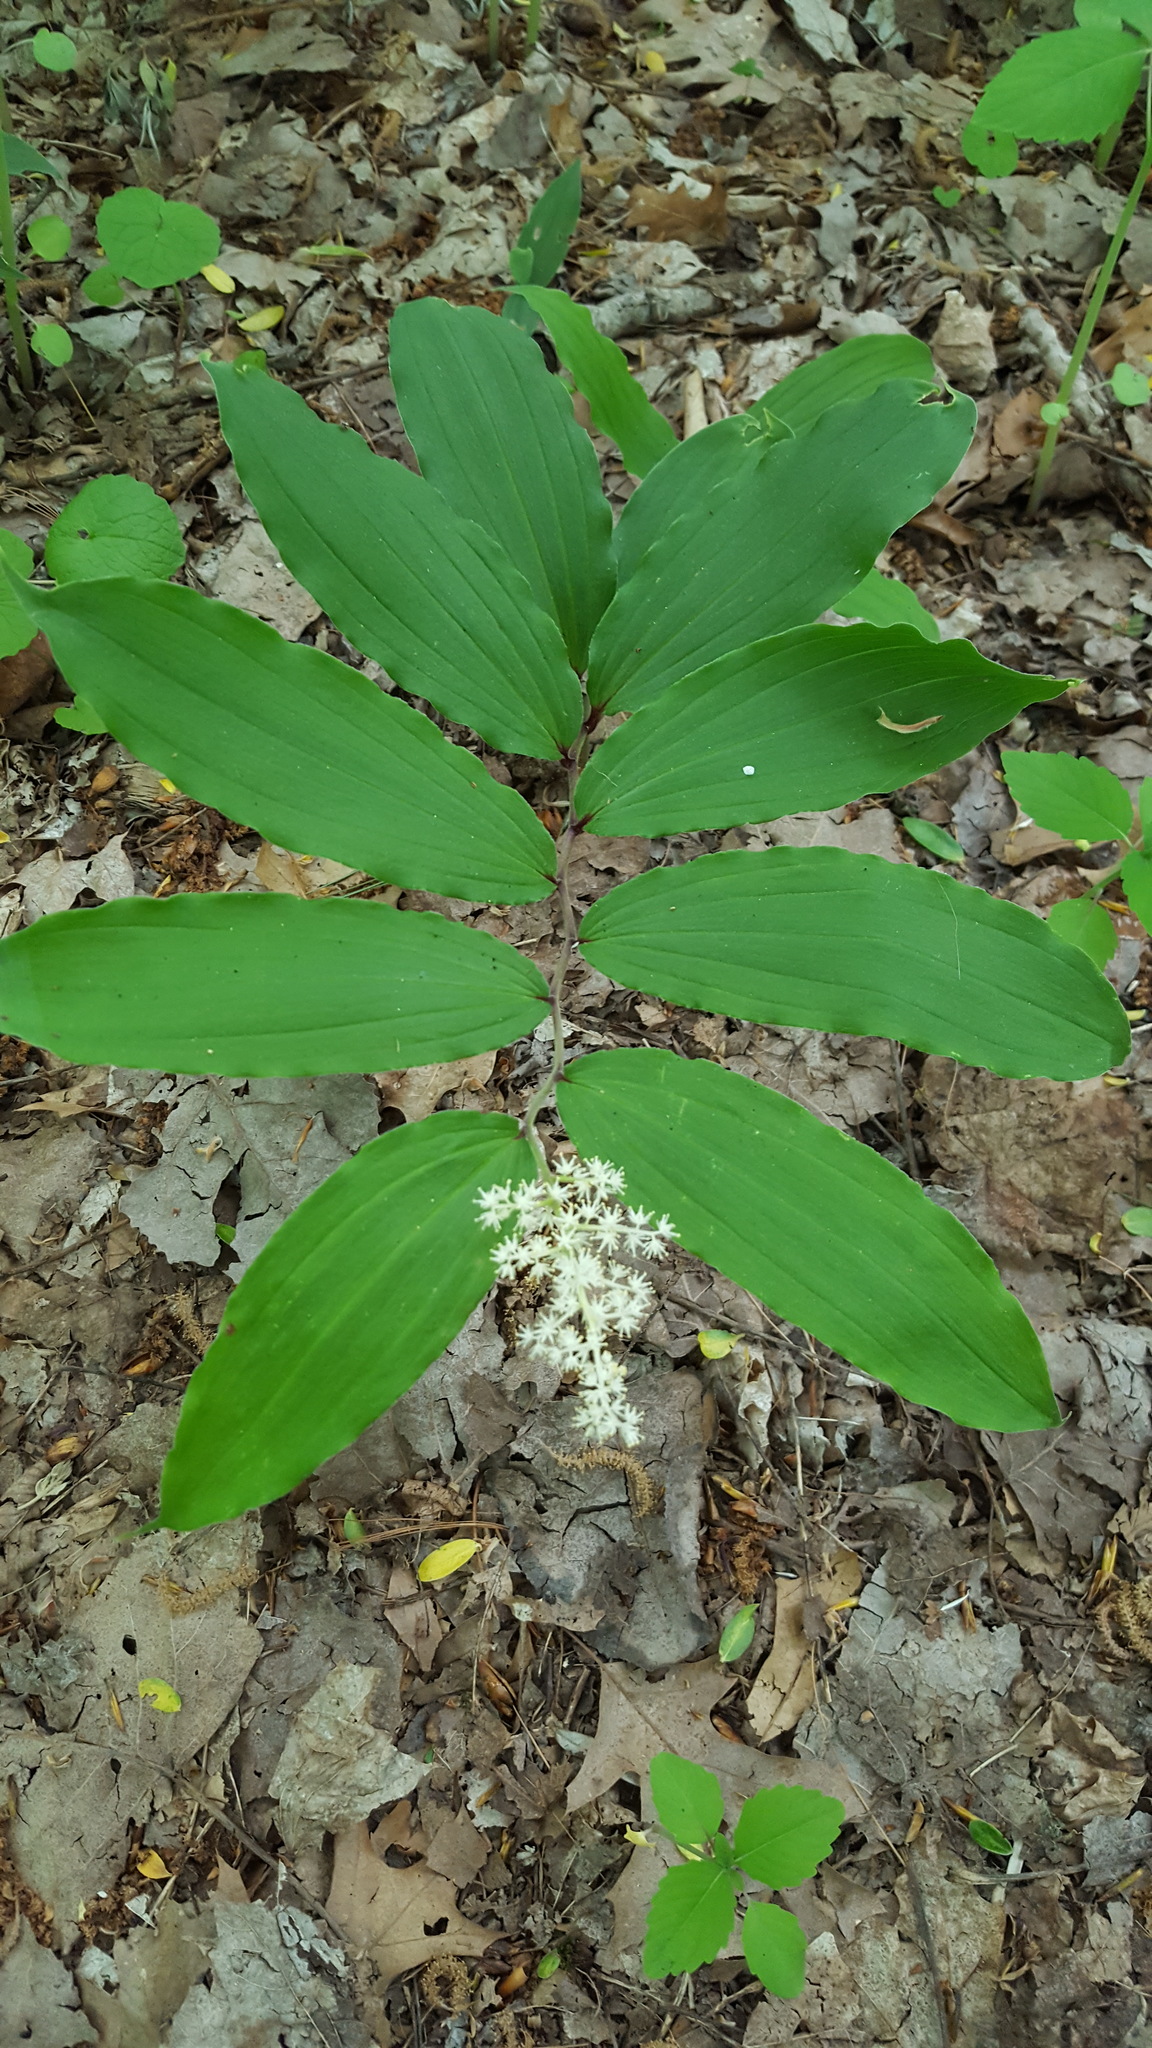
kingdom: Plantae
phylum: Tracheophyta
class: Liliopsida
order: Asparagales
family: Asparagaceae
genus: Maianthemum
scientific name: Maianthemum racemosum
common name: False spikenard
